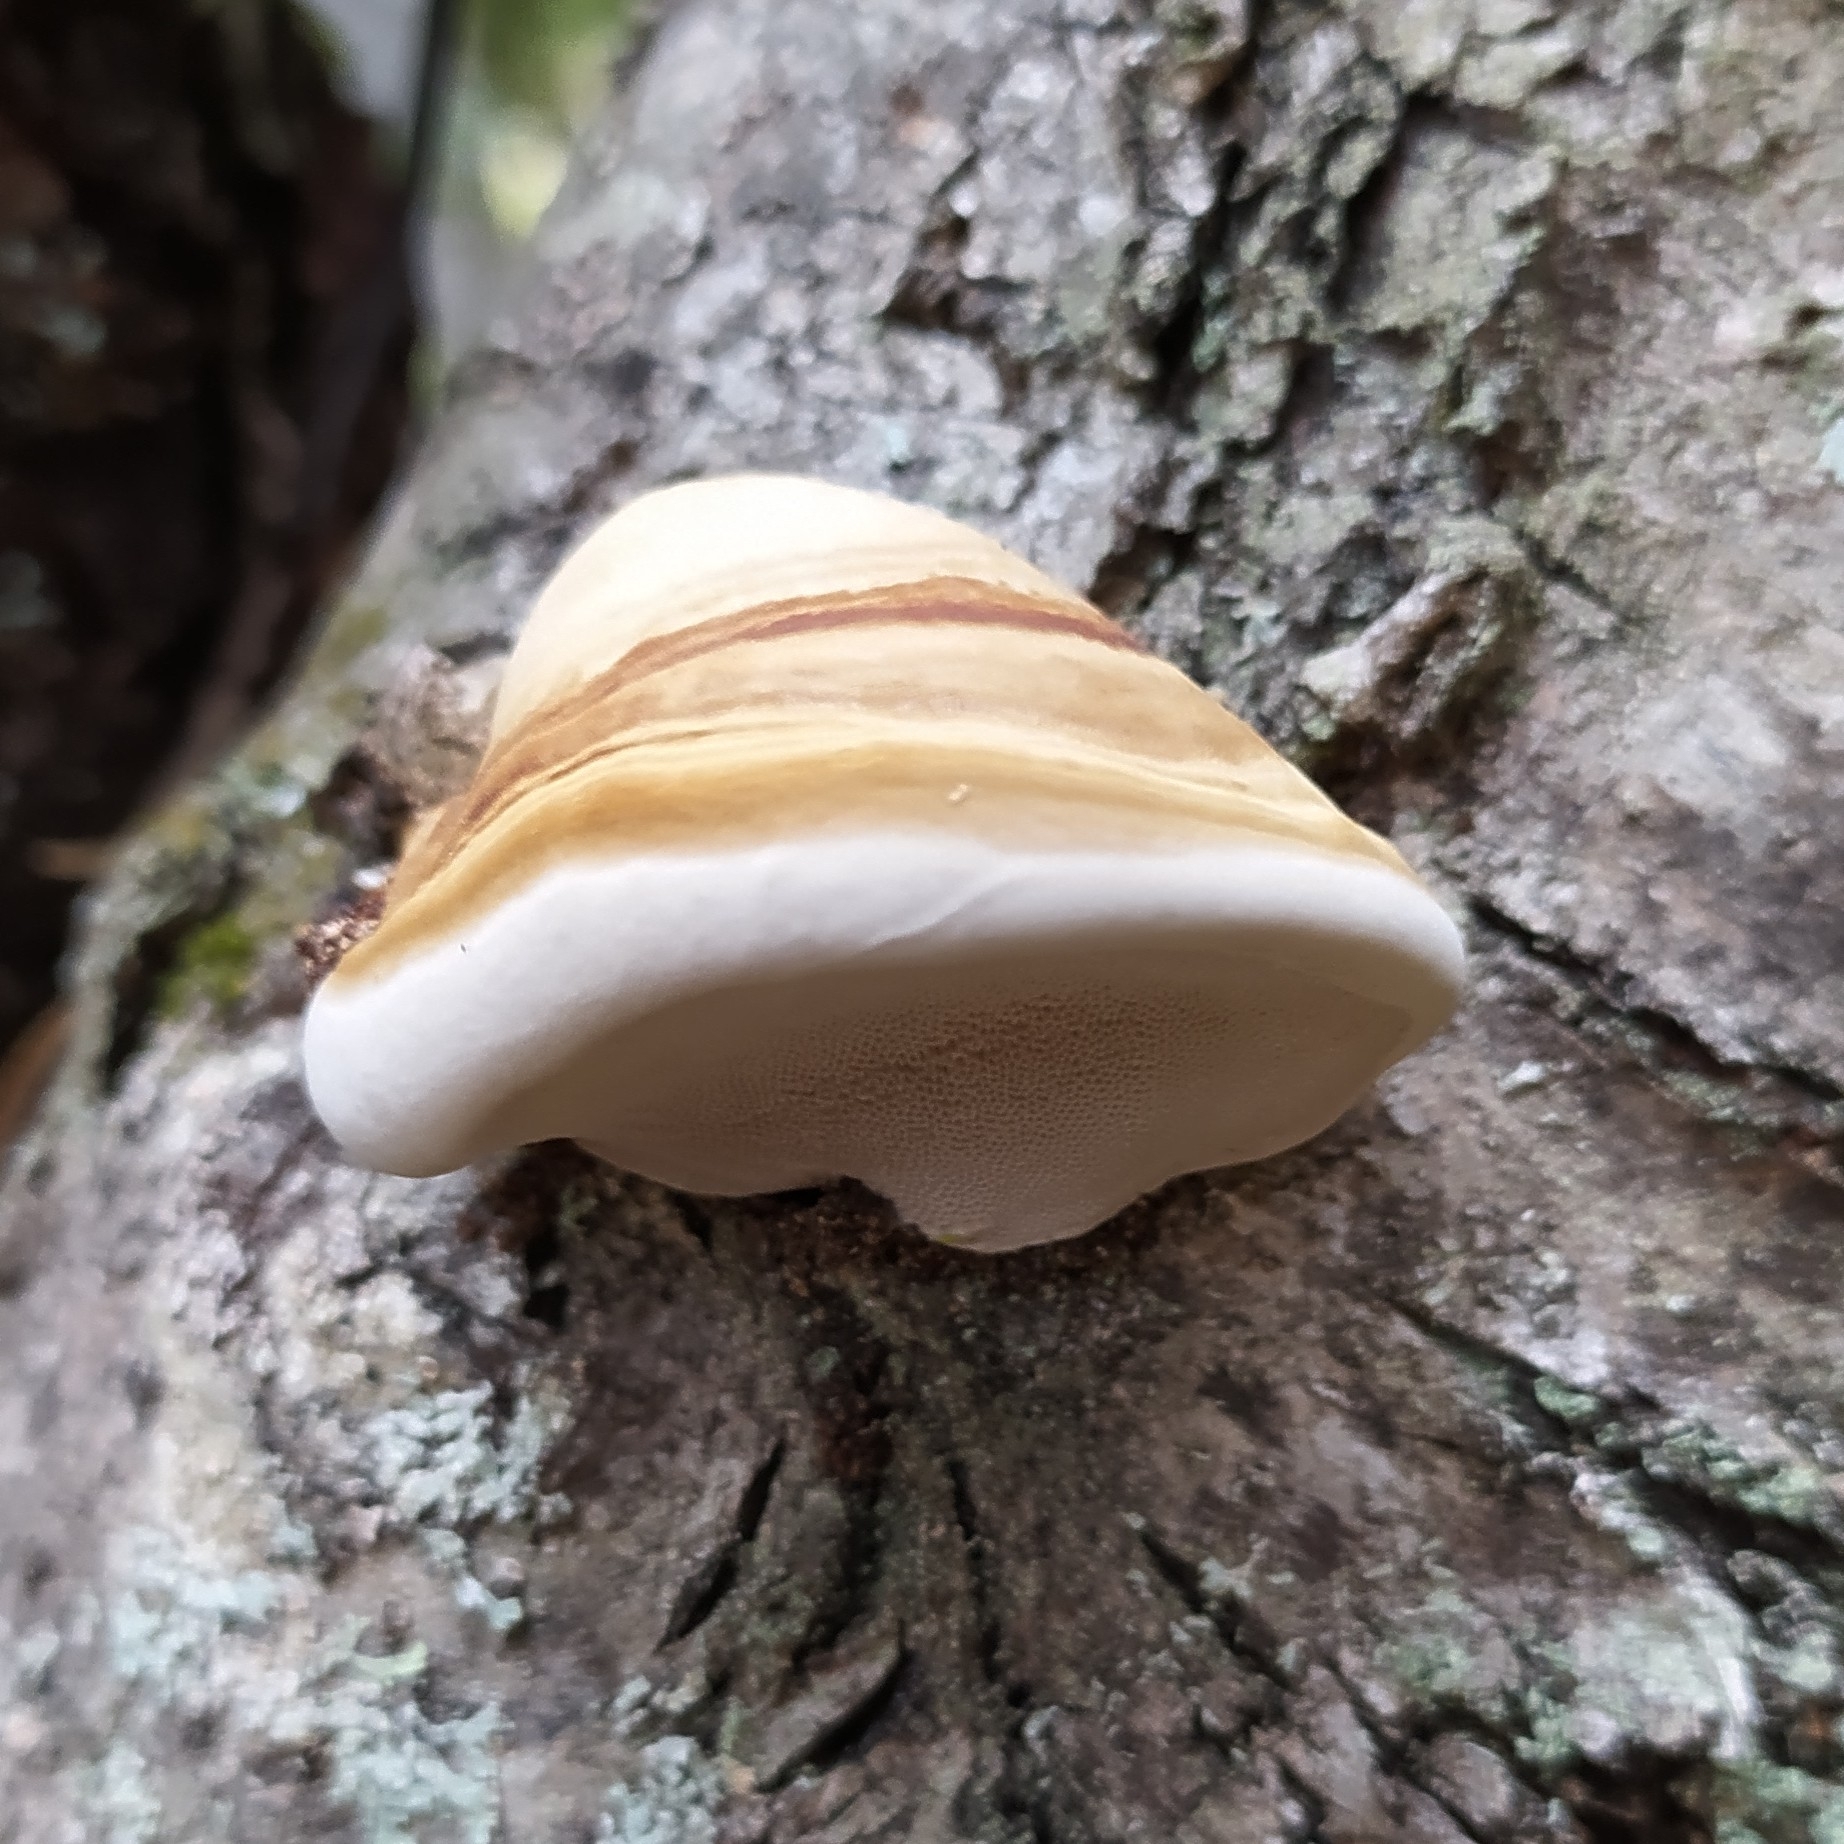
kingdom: Fungi
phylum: Basidiomycota
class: Agaricomycetes
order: Polyporales
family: Polyporaceae
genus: Fomes
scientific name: Fomes fomentarius
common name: Hoof fungus
